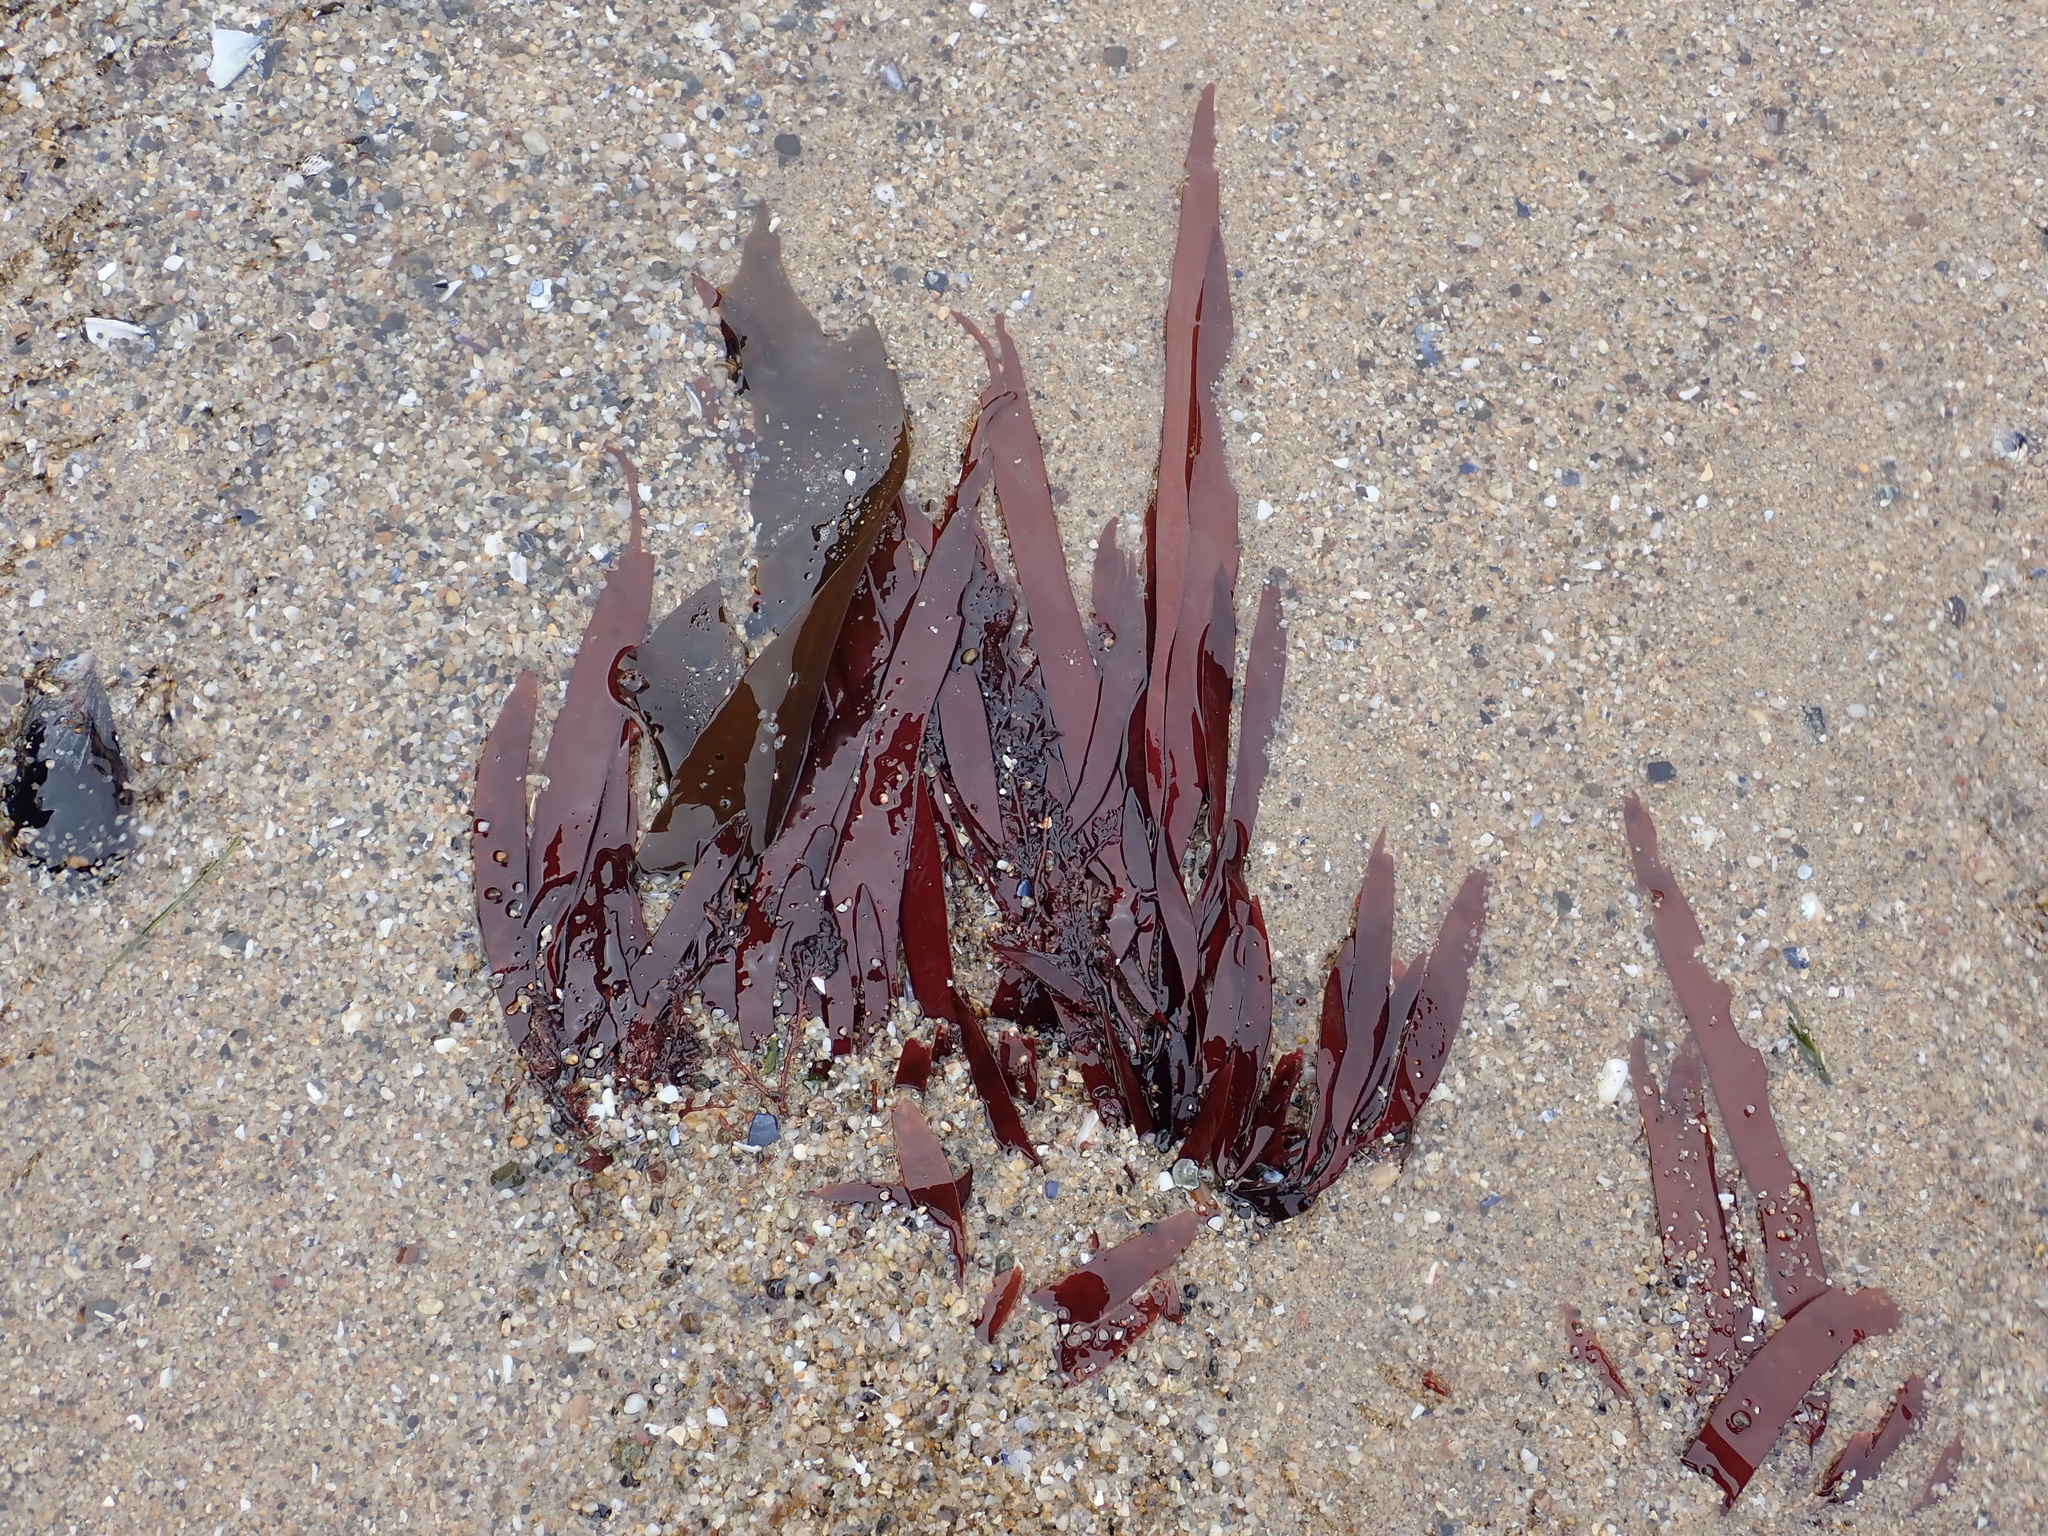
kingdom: Plantae
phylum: Rhodophyta
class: Florideophyceae
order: Halymeniales
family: Halymeniaceae
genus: Grateloupia
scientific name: Grateloupia Prionitis sternbergii
